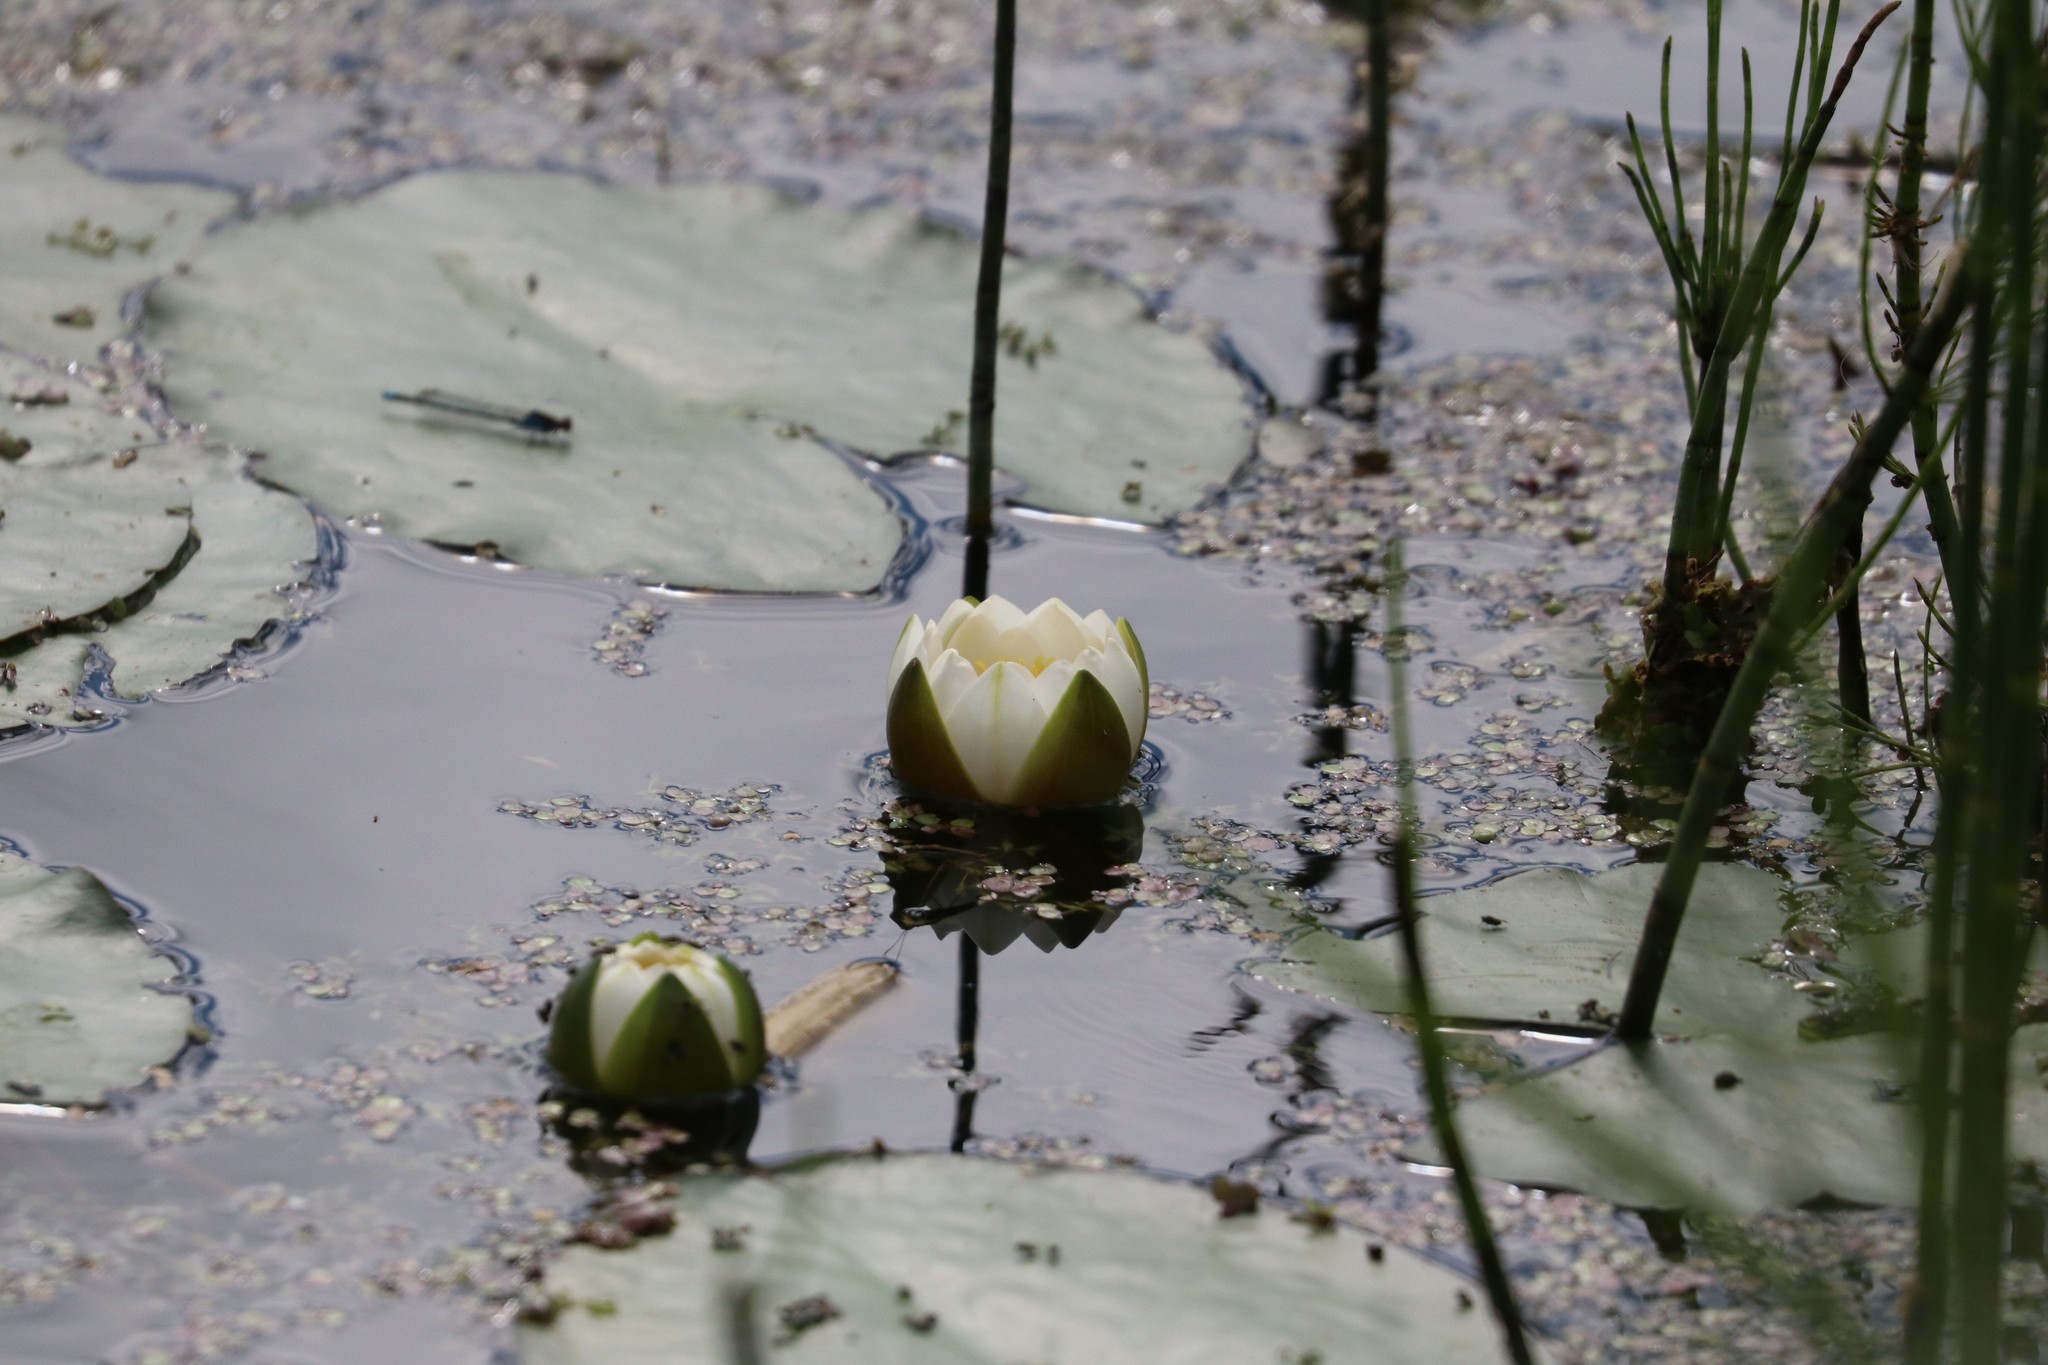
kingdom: Plantae
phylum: Tracheophyta
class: Magnoliopsida
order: Nymphaeales
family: Nymphaeaceae
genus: Nymphaea
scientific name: Nymphaea candida
